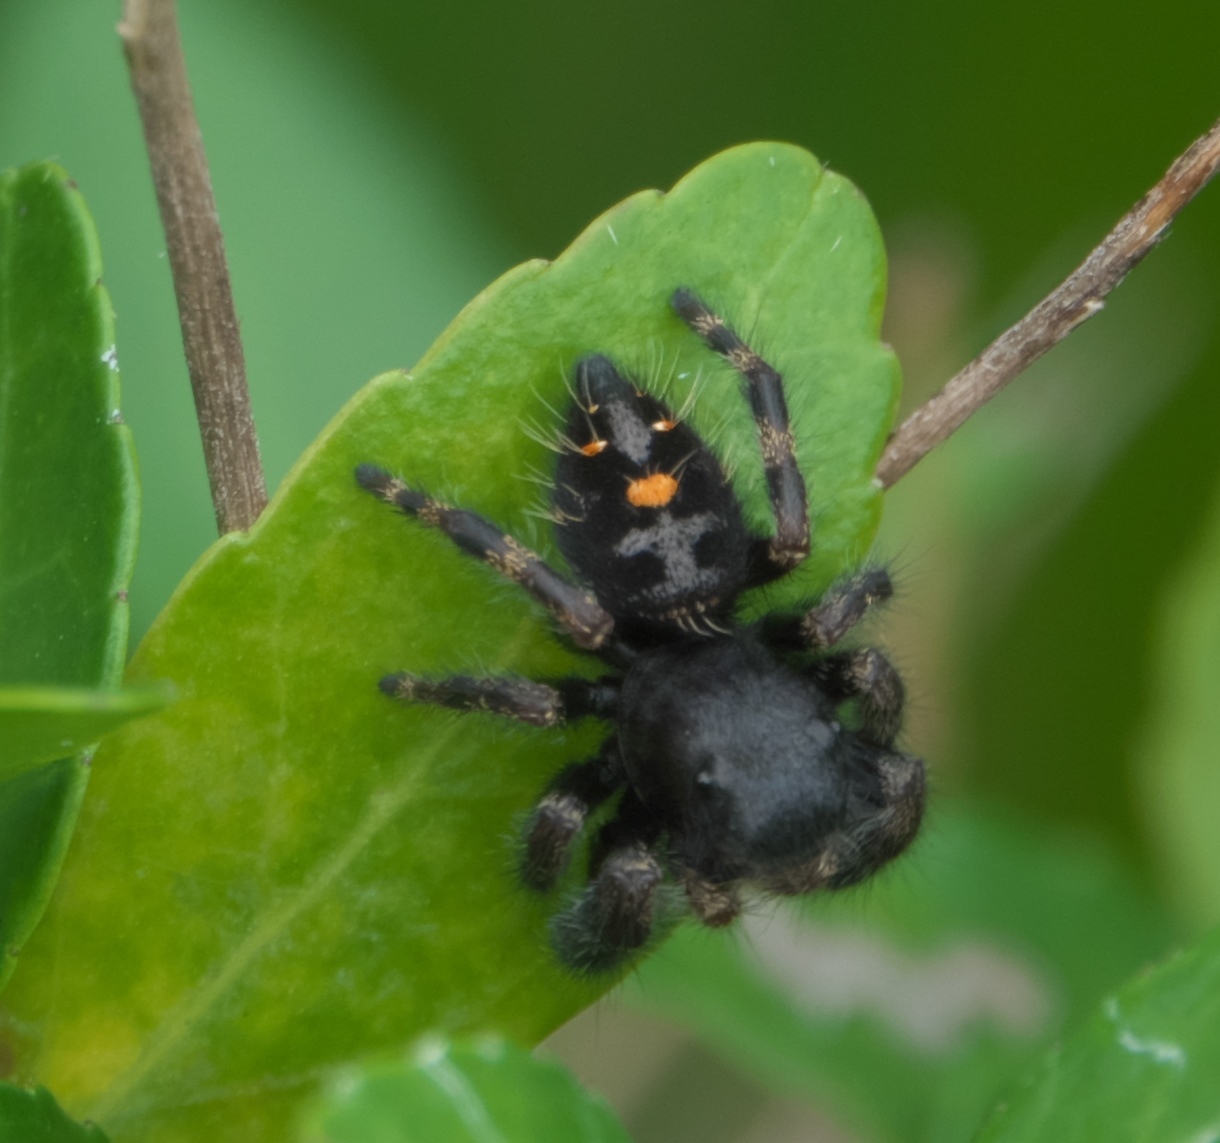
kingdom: Animalia
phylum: Arthropoda
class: Arachnida
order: Araneae
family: Salticidae
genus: Phidippus
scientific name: Phidippus audax
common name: Bold jumper
